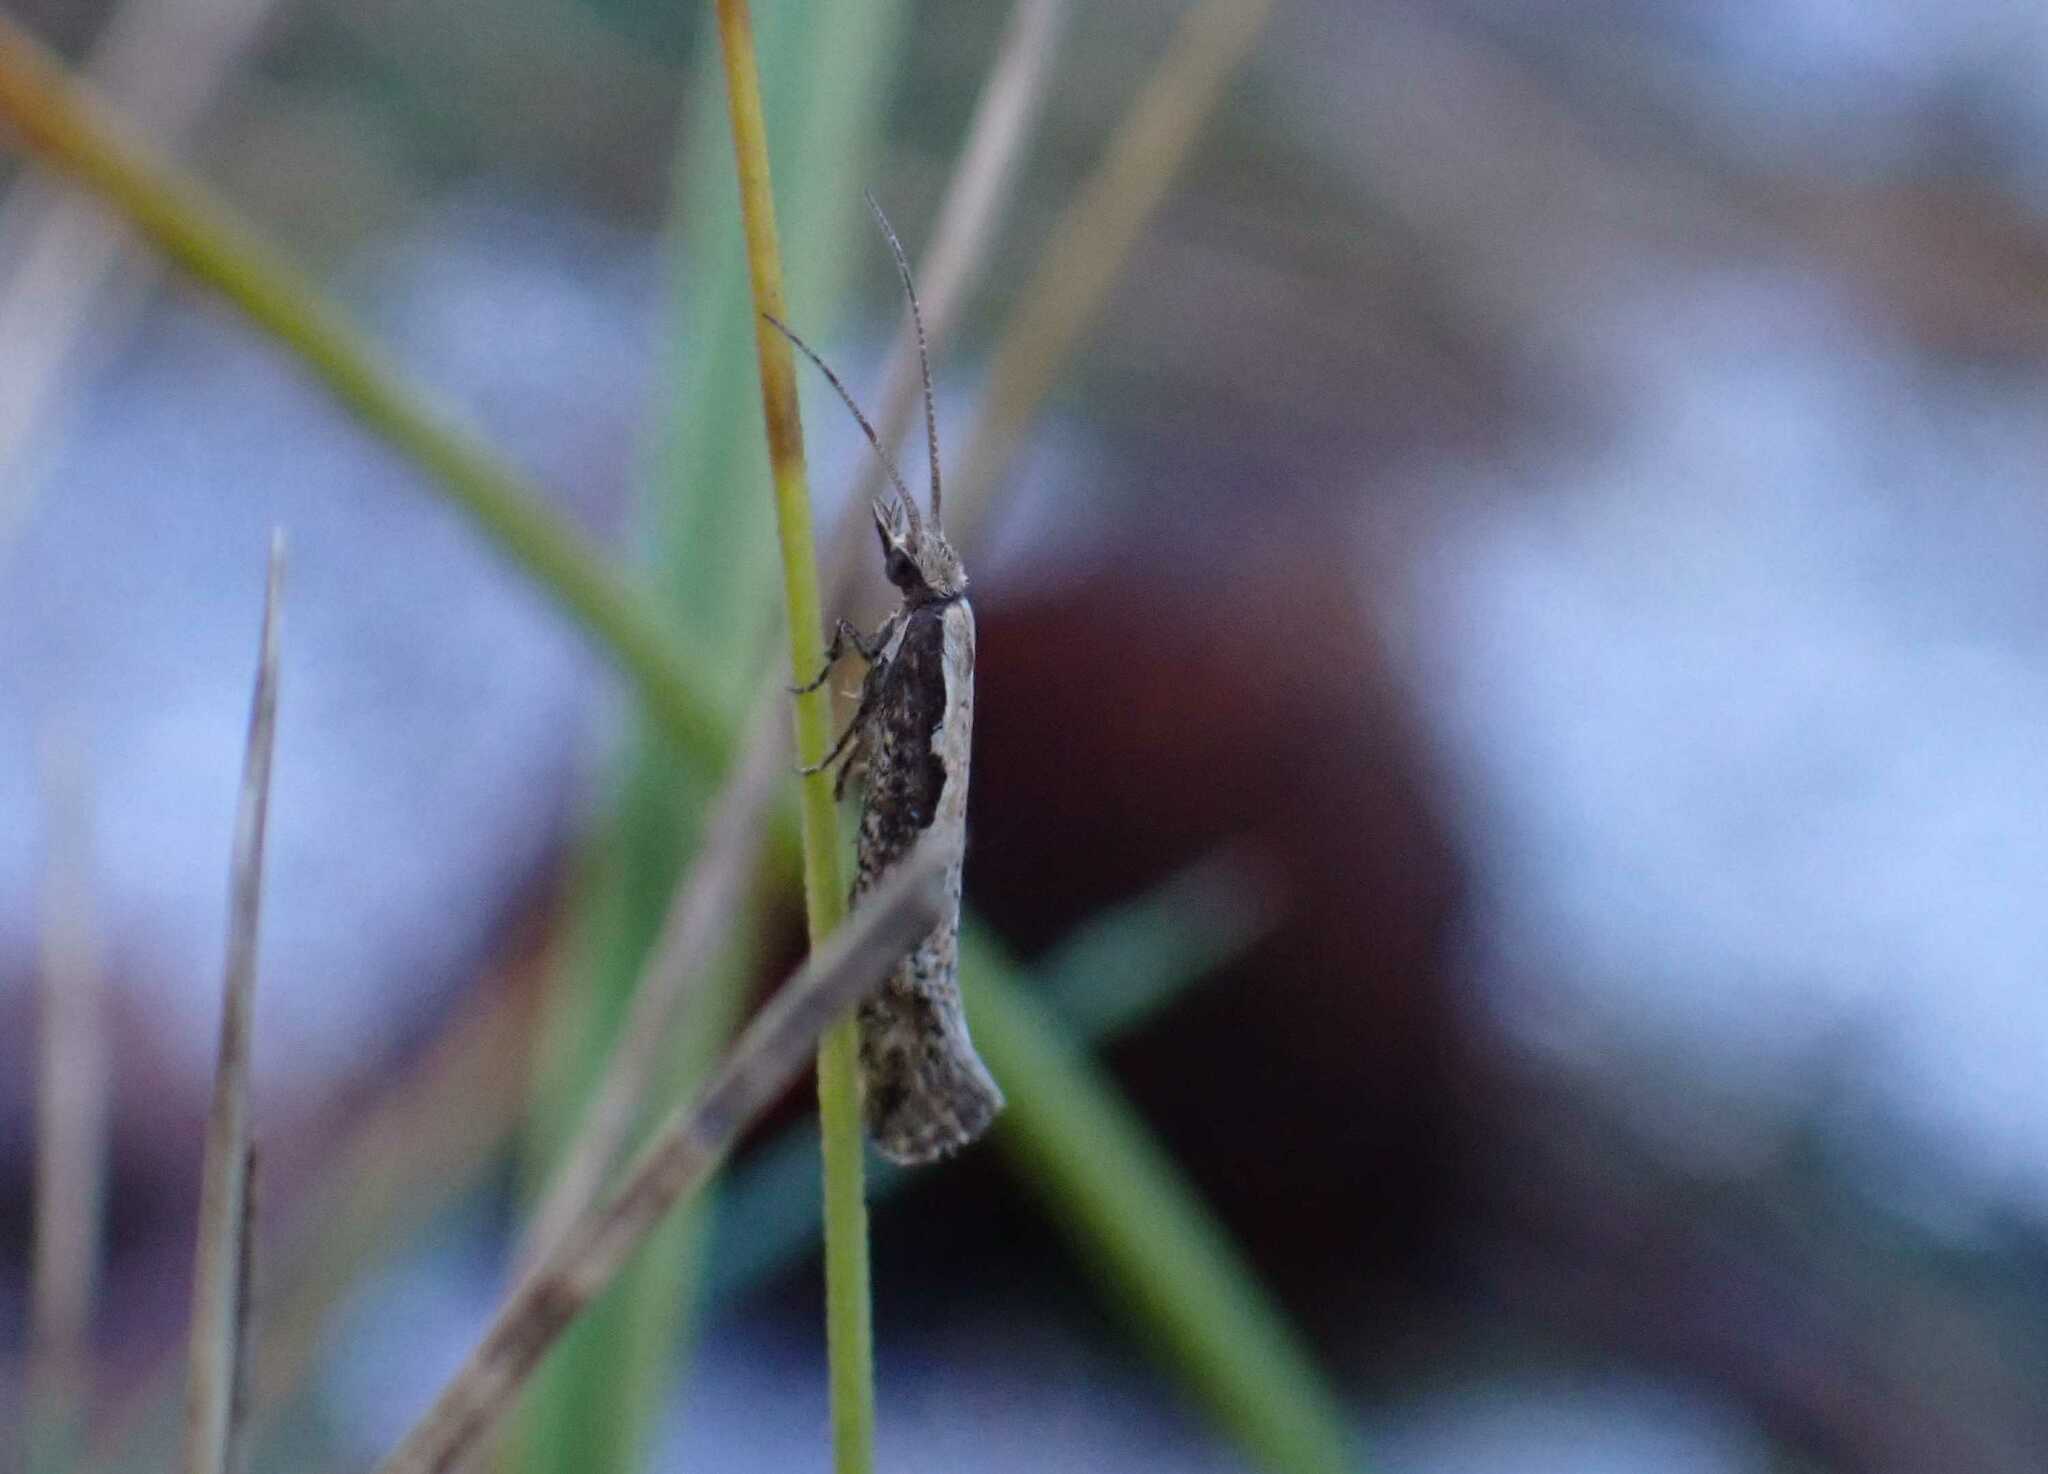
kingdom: Animalia
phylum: Arthropoda
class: Insecta
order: Lepidoptera
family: Plutellidae
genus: Plutella
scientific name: Plutella xylostella
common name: Diamond-back moth
